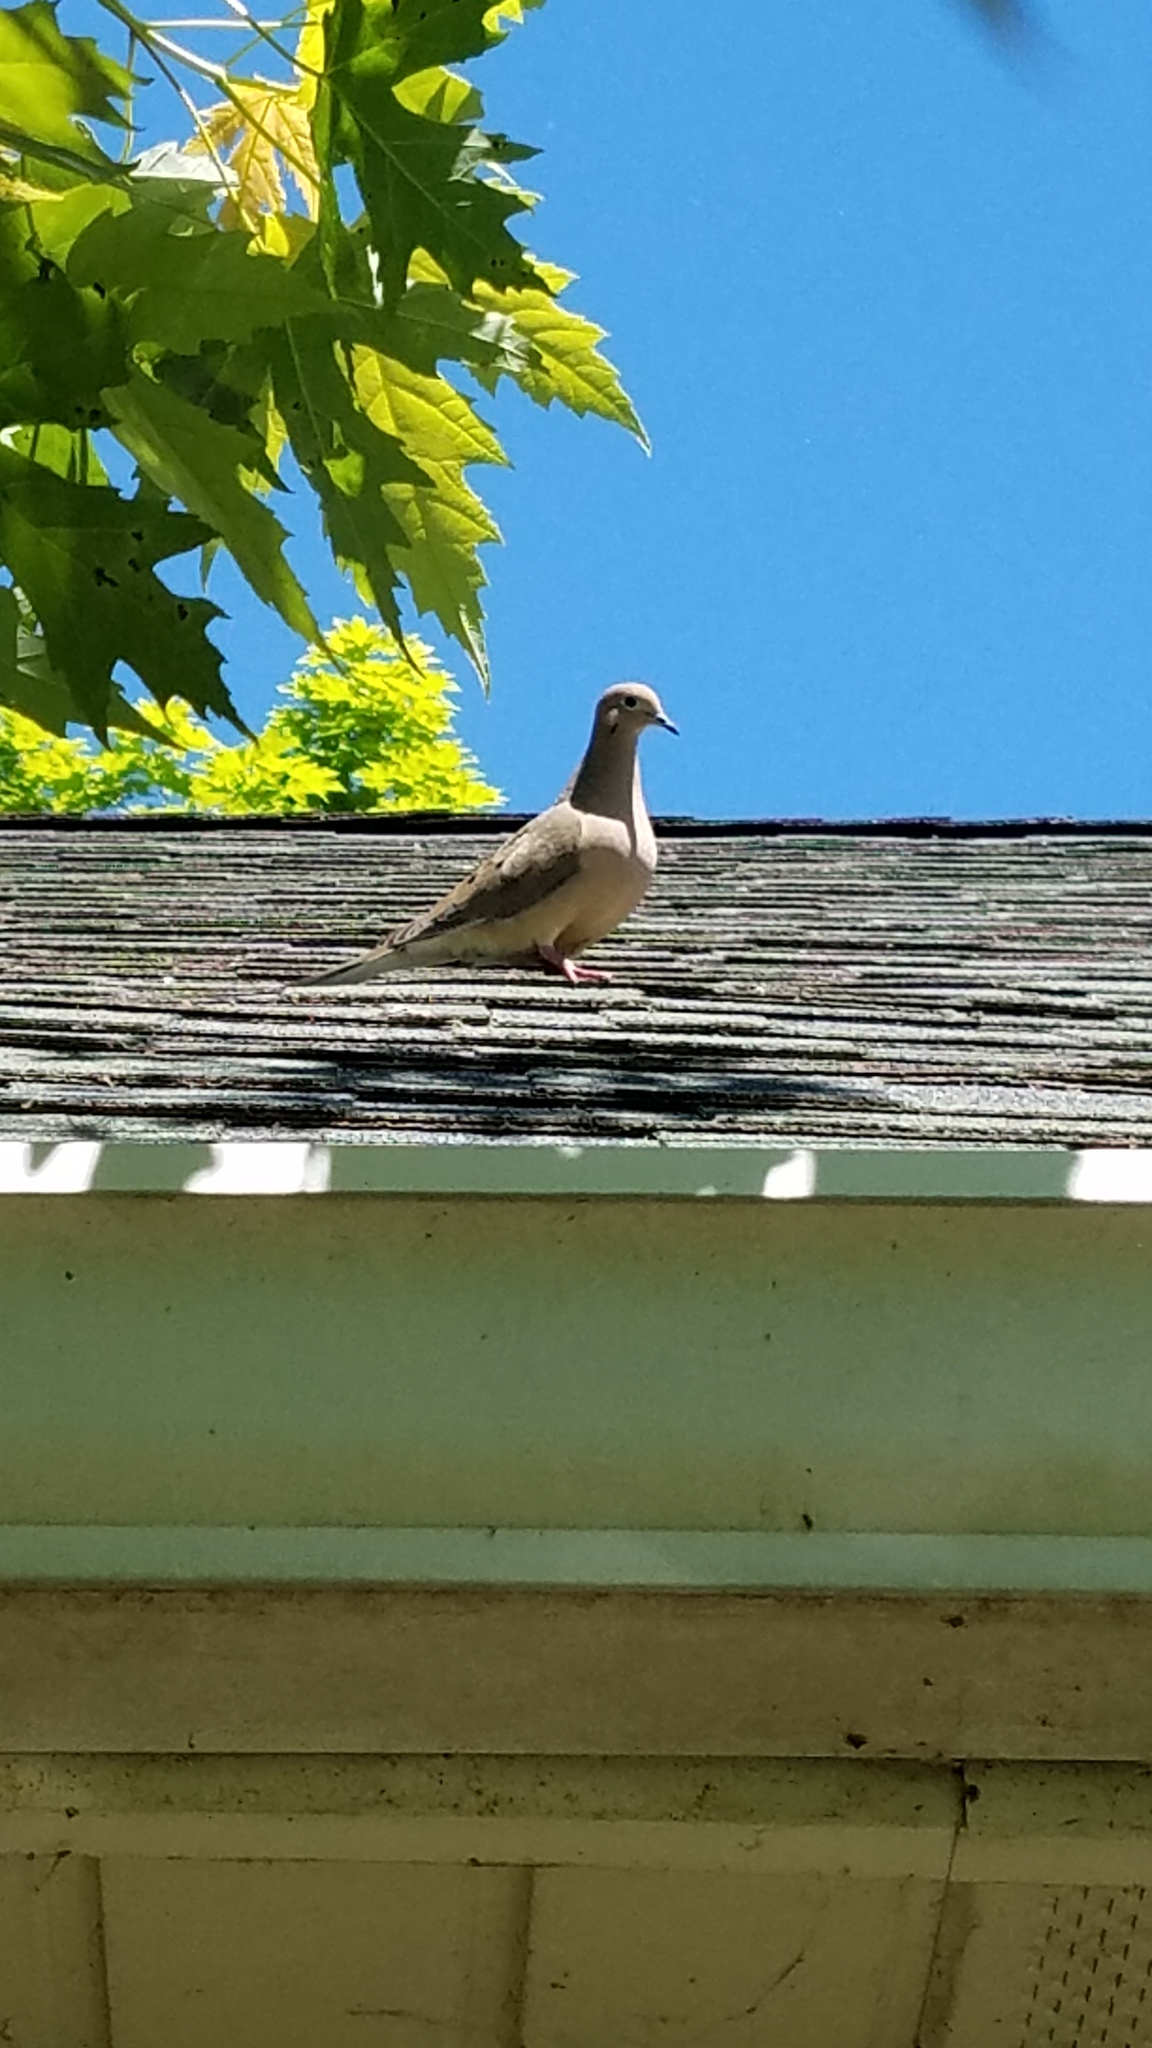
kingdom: Animalia
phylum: Chordata
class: Aves
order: Columbiformes
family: Columbidae
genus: Zenaida
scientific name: Zenaida macroura
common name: Mourning dove
